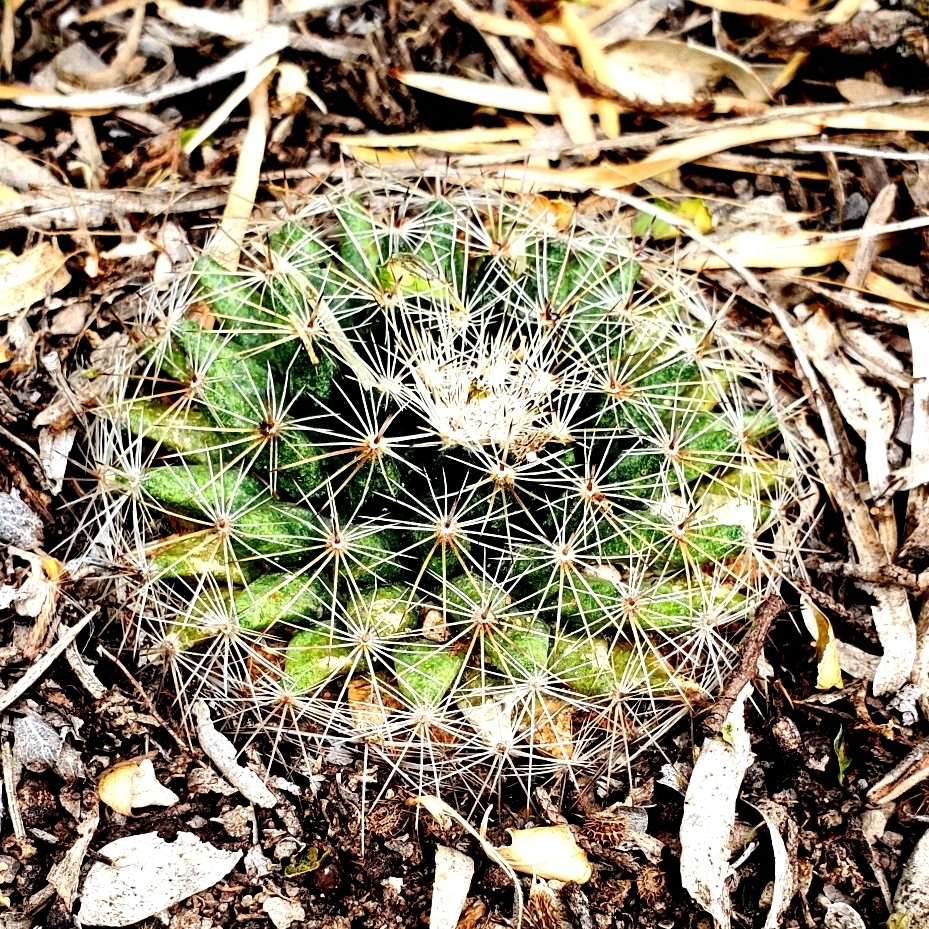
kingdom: Plantae
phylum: Tracheophyta
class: Magnoliopsida
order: Caryophyllales
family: Cactaceae
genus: Mammillaria
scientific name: Mammillaria heyderi
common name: Little nipple cactus
